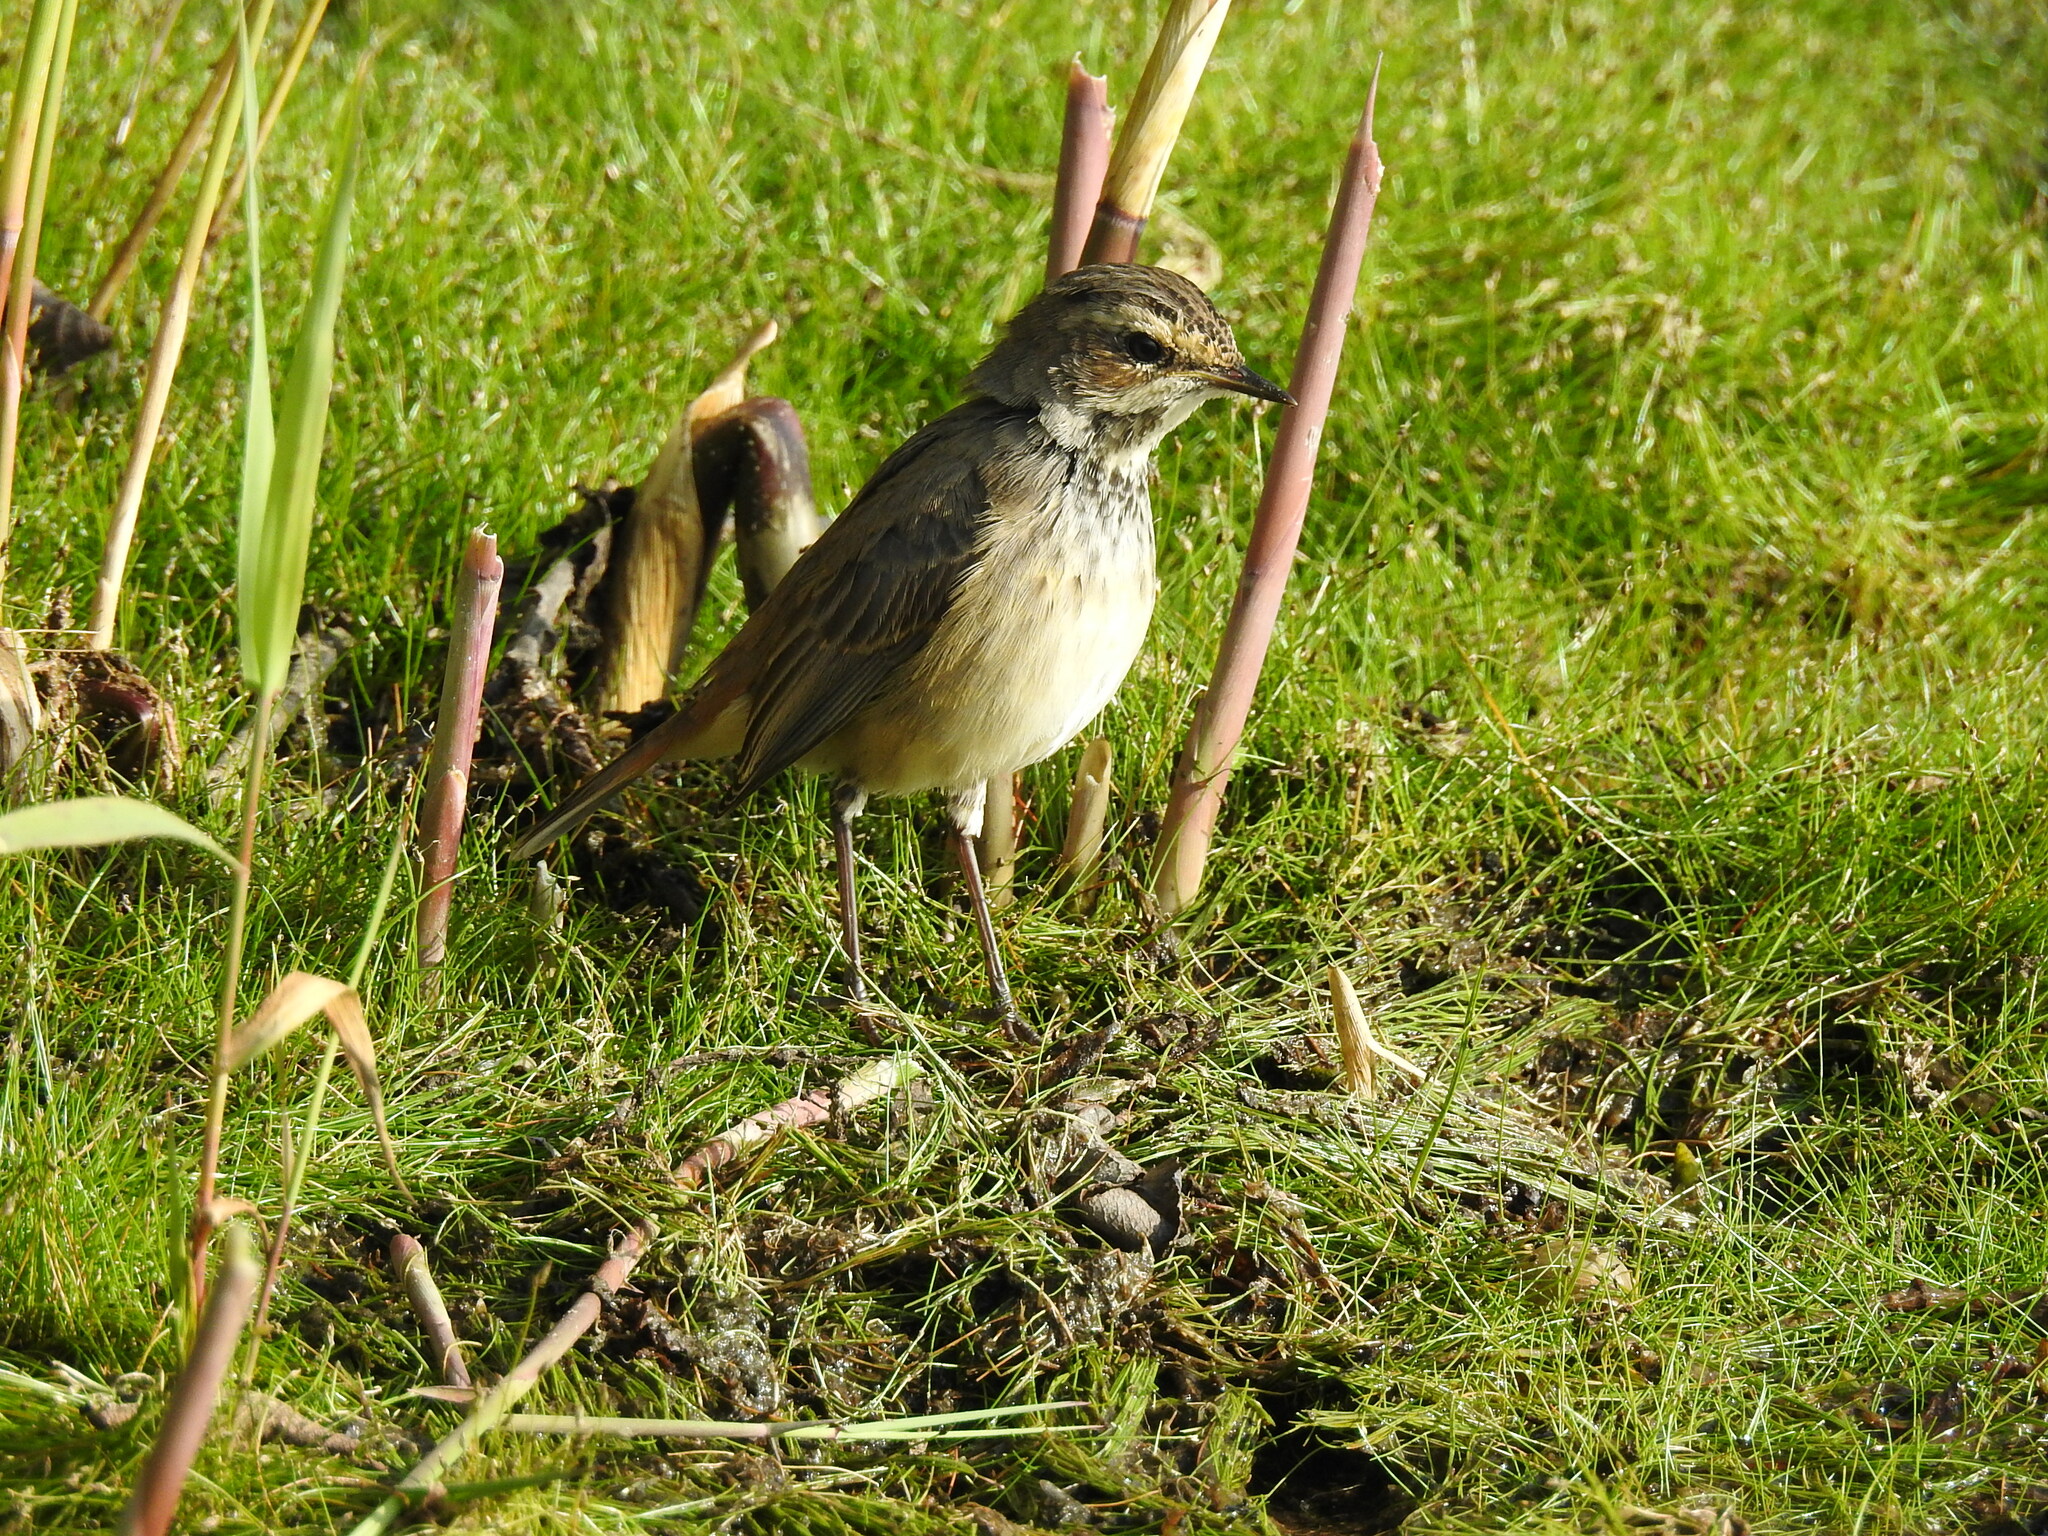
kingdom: Animalia
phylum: Chordata
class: Aves
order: Passeriformes
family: Muscicapidae
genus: Luscinia
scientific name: Luscinia svecica
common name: Bluethroat
